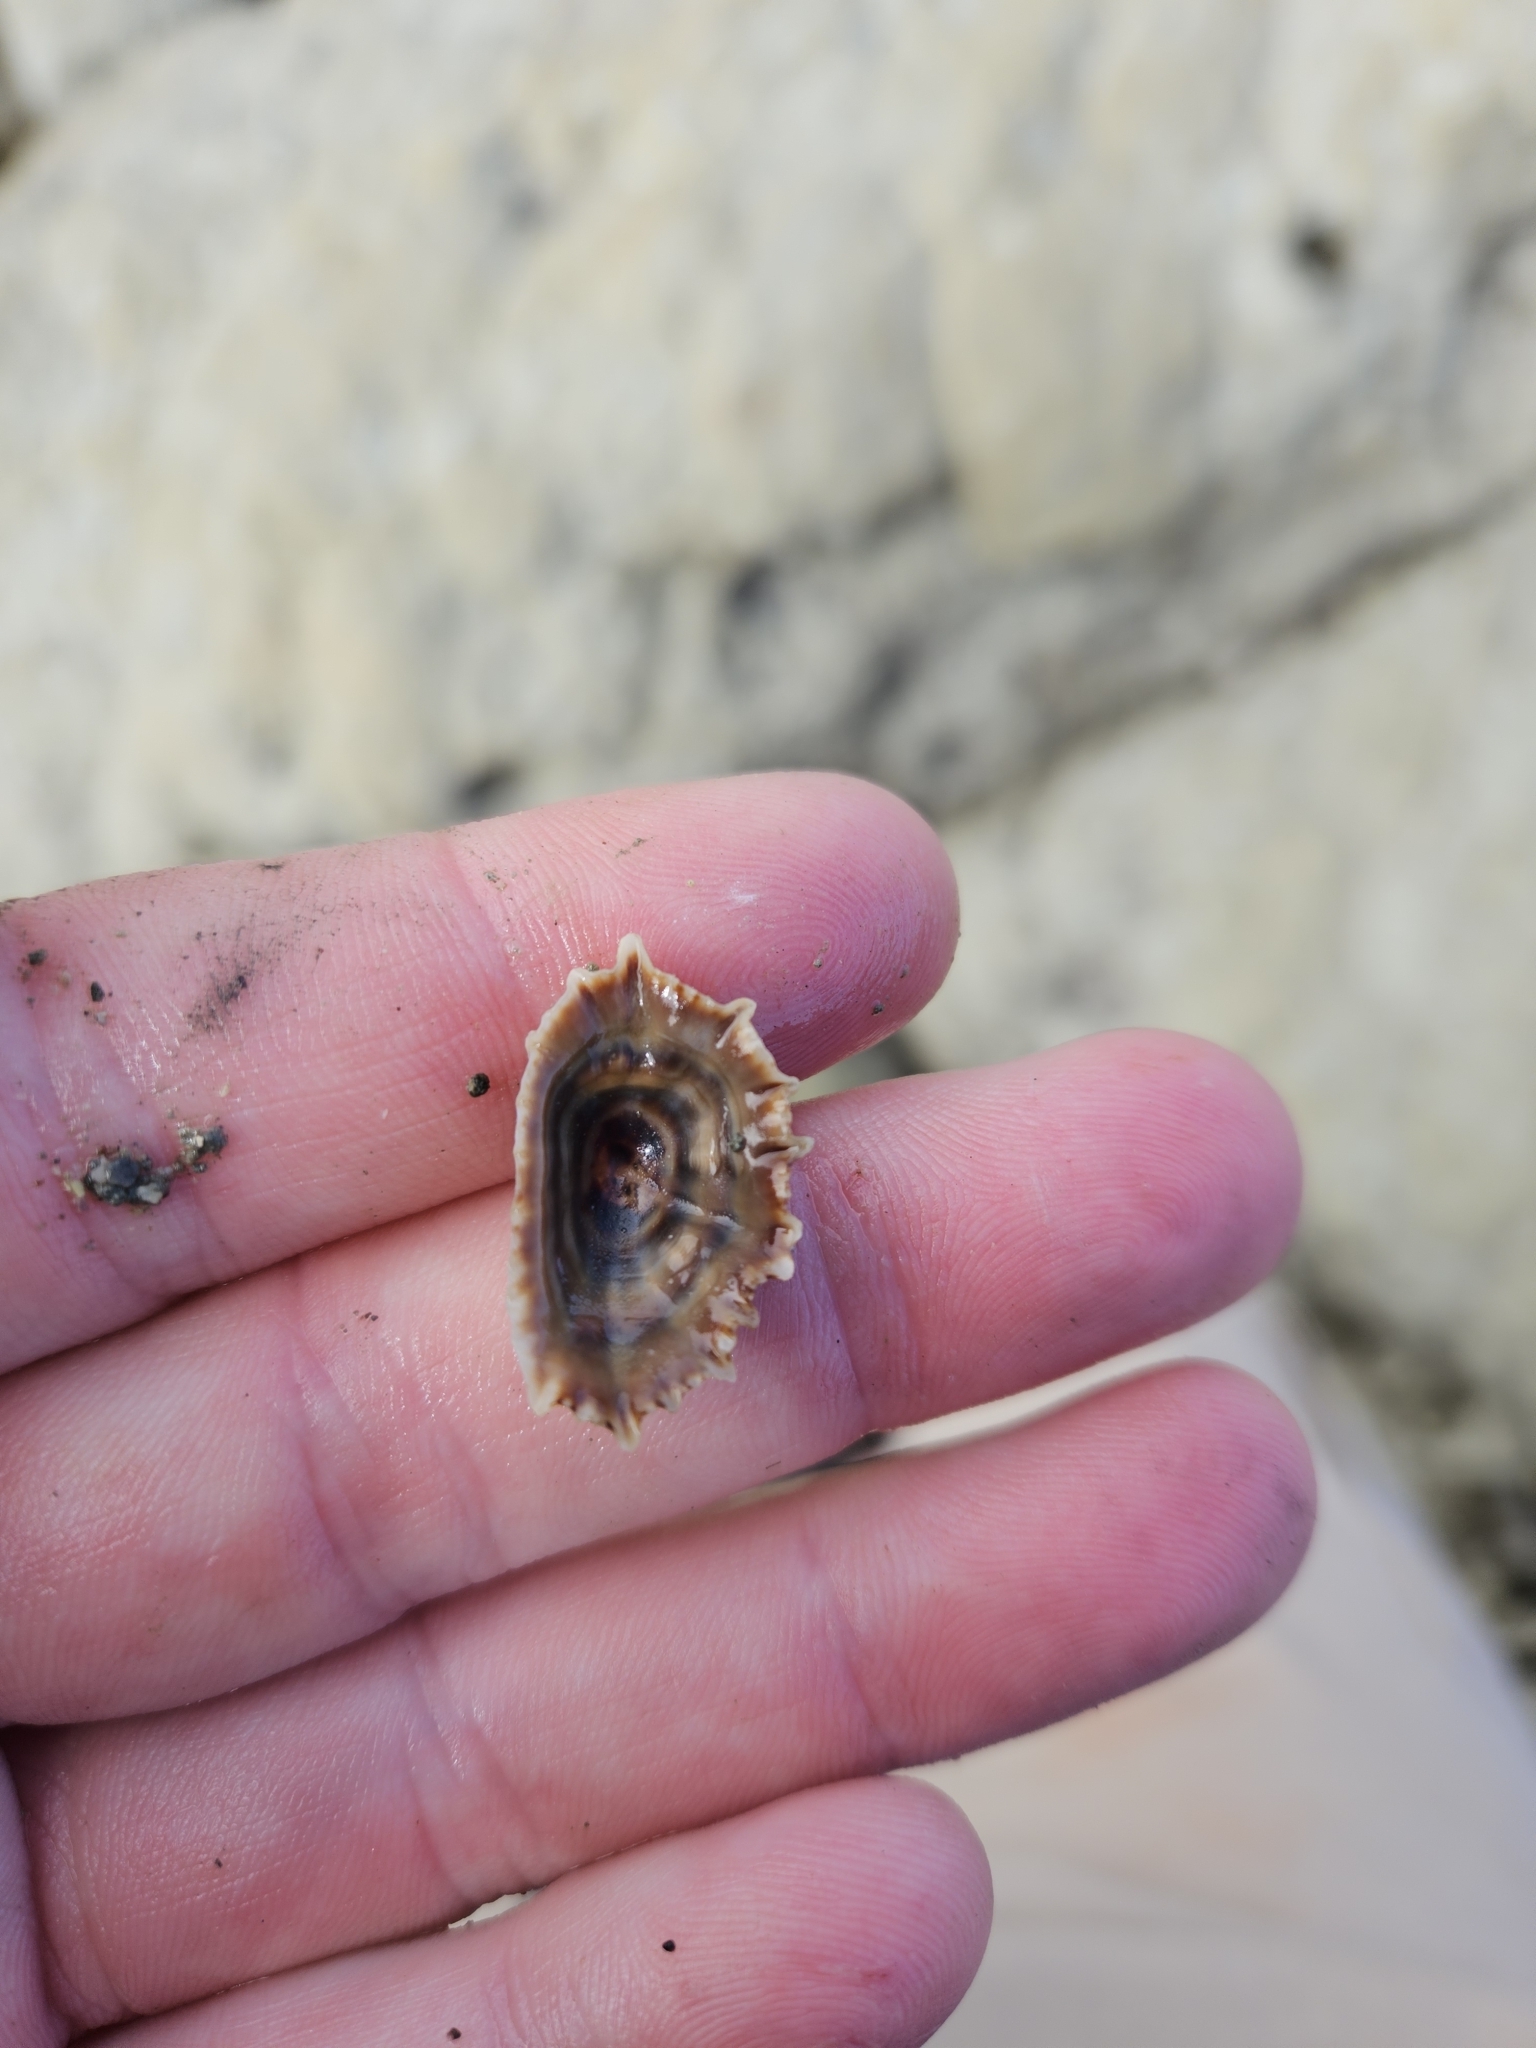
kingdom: Animalia
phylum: Mollusca
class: Gastropoda
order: Siphonariida
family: Siphonariidae
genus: Siphonaria
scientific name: Siphonaria australis
